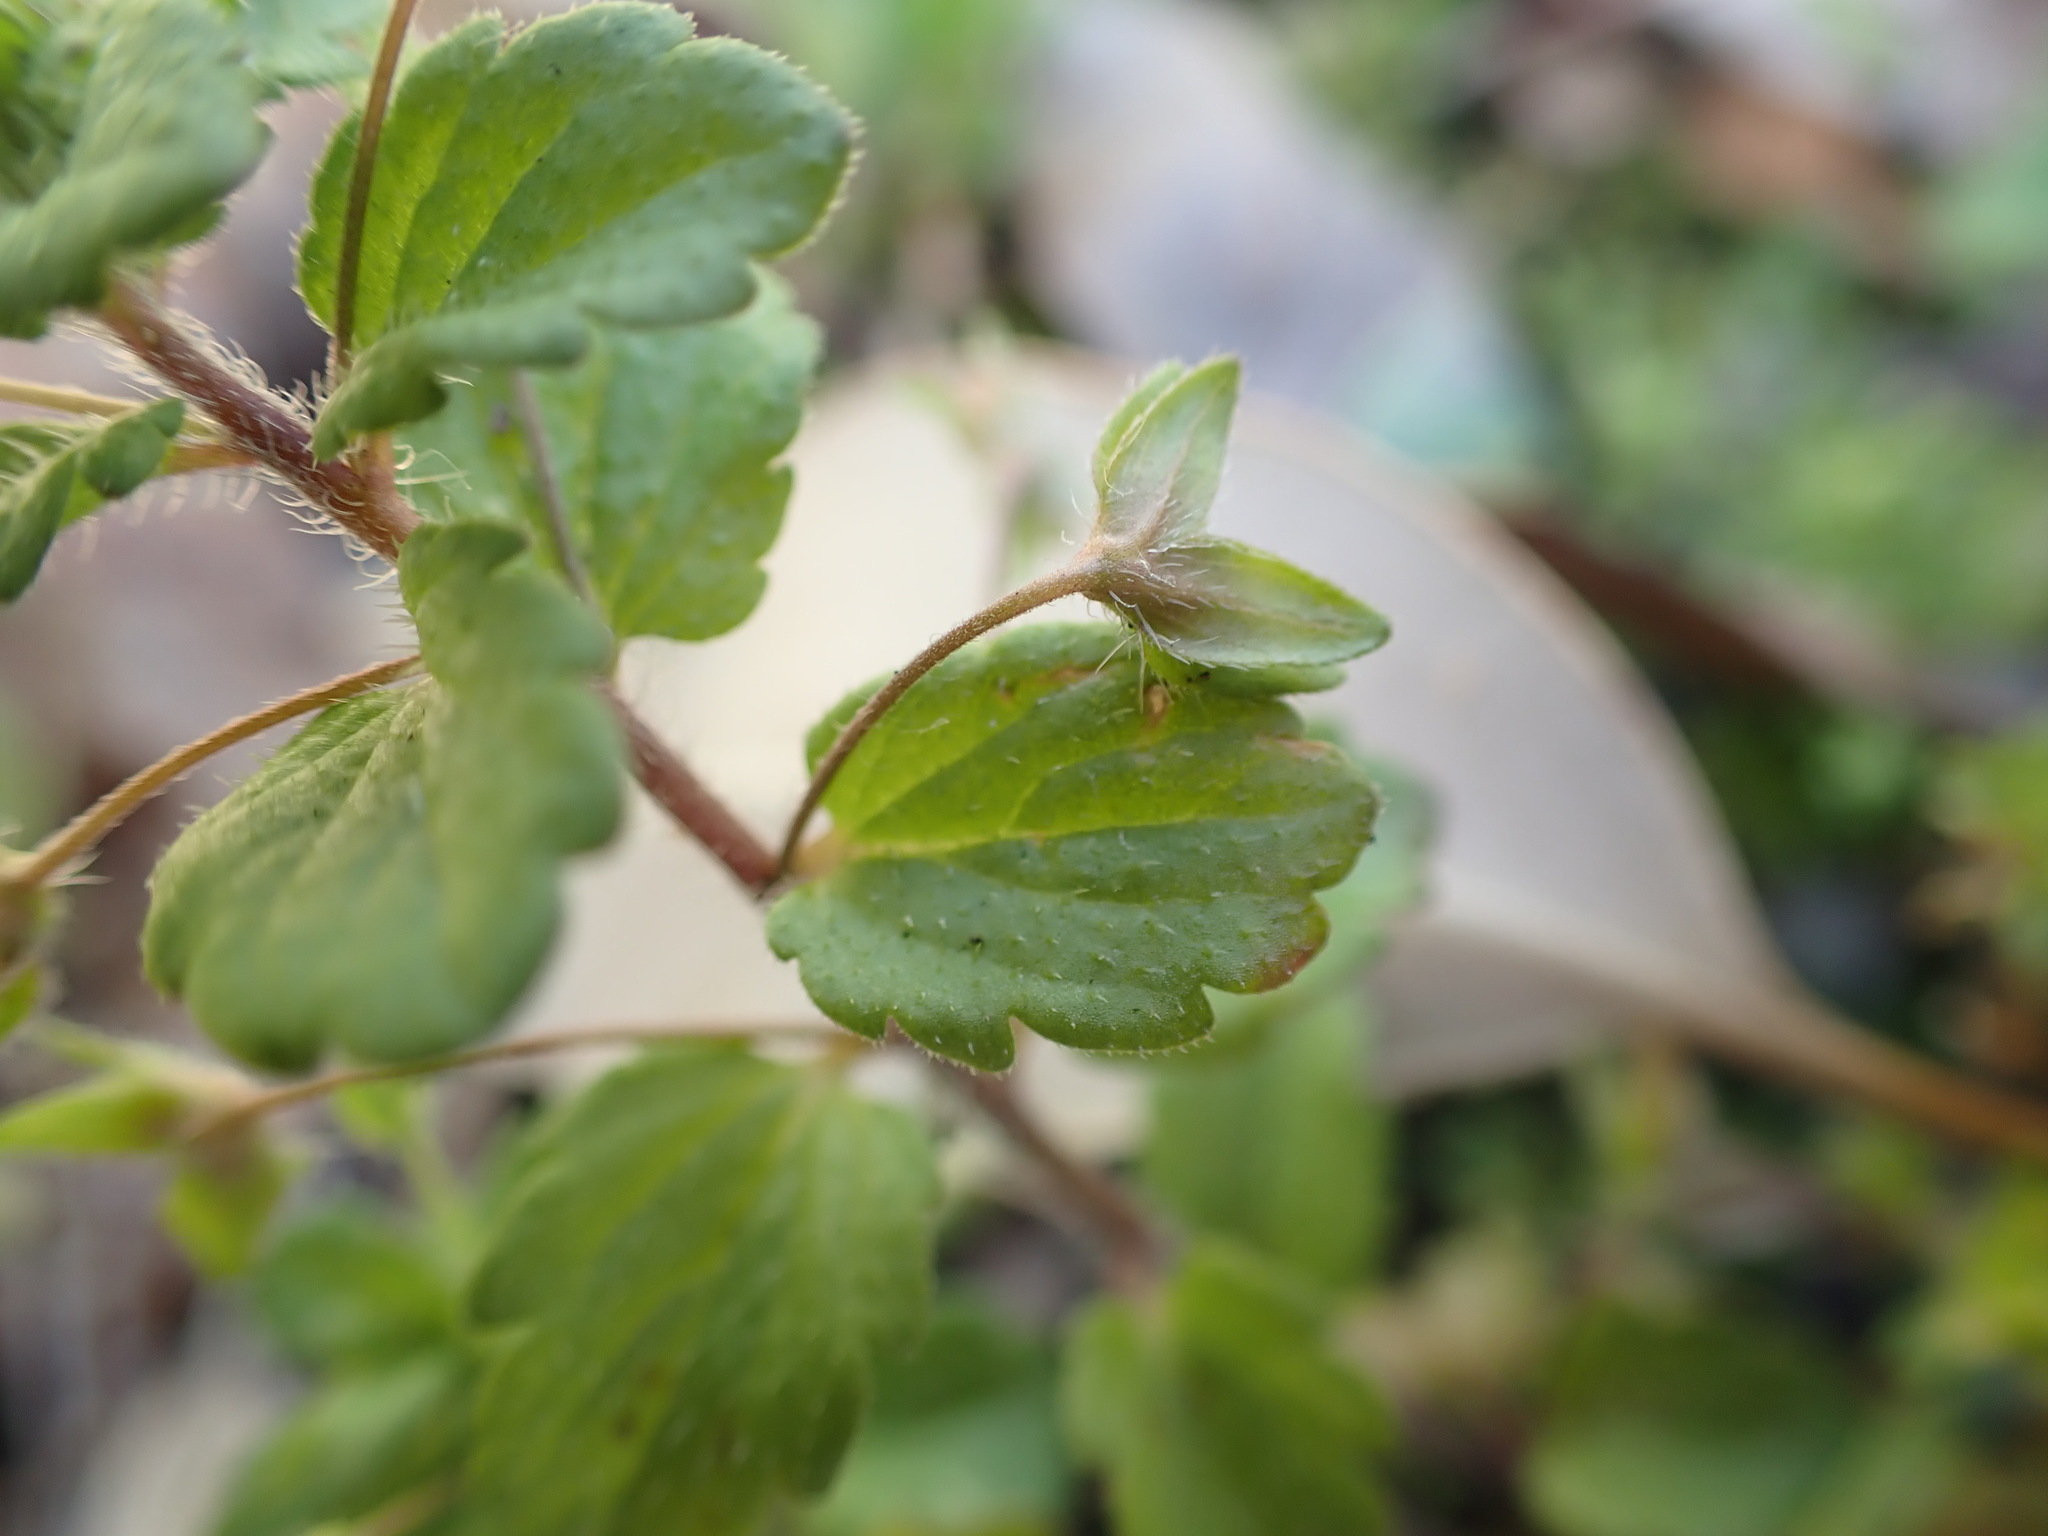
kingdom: Plantae
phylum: Tracheophyta
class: Magnoliopsida
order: Lamiales
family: Plantaginaceae
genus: Veronica
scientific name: Veronica persica
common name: Common field-speedwell
